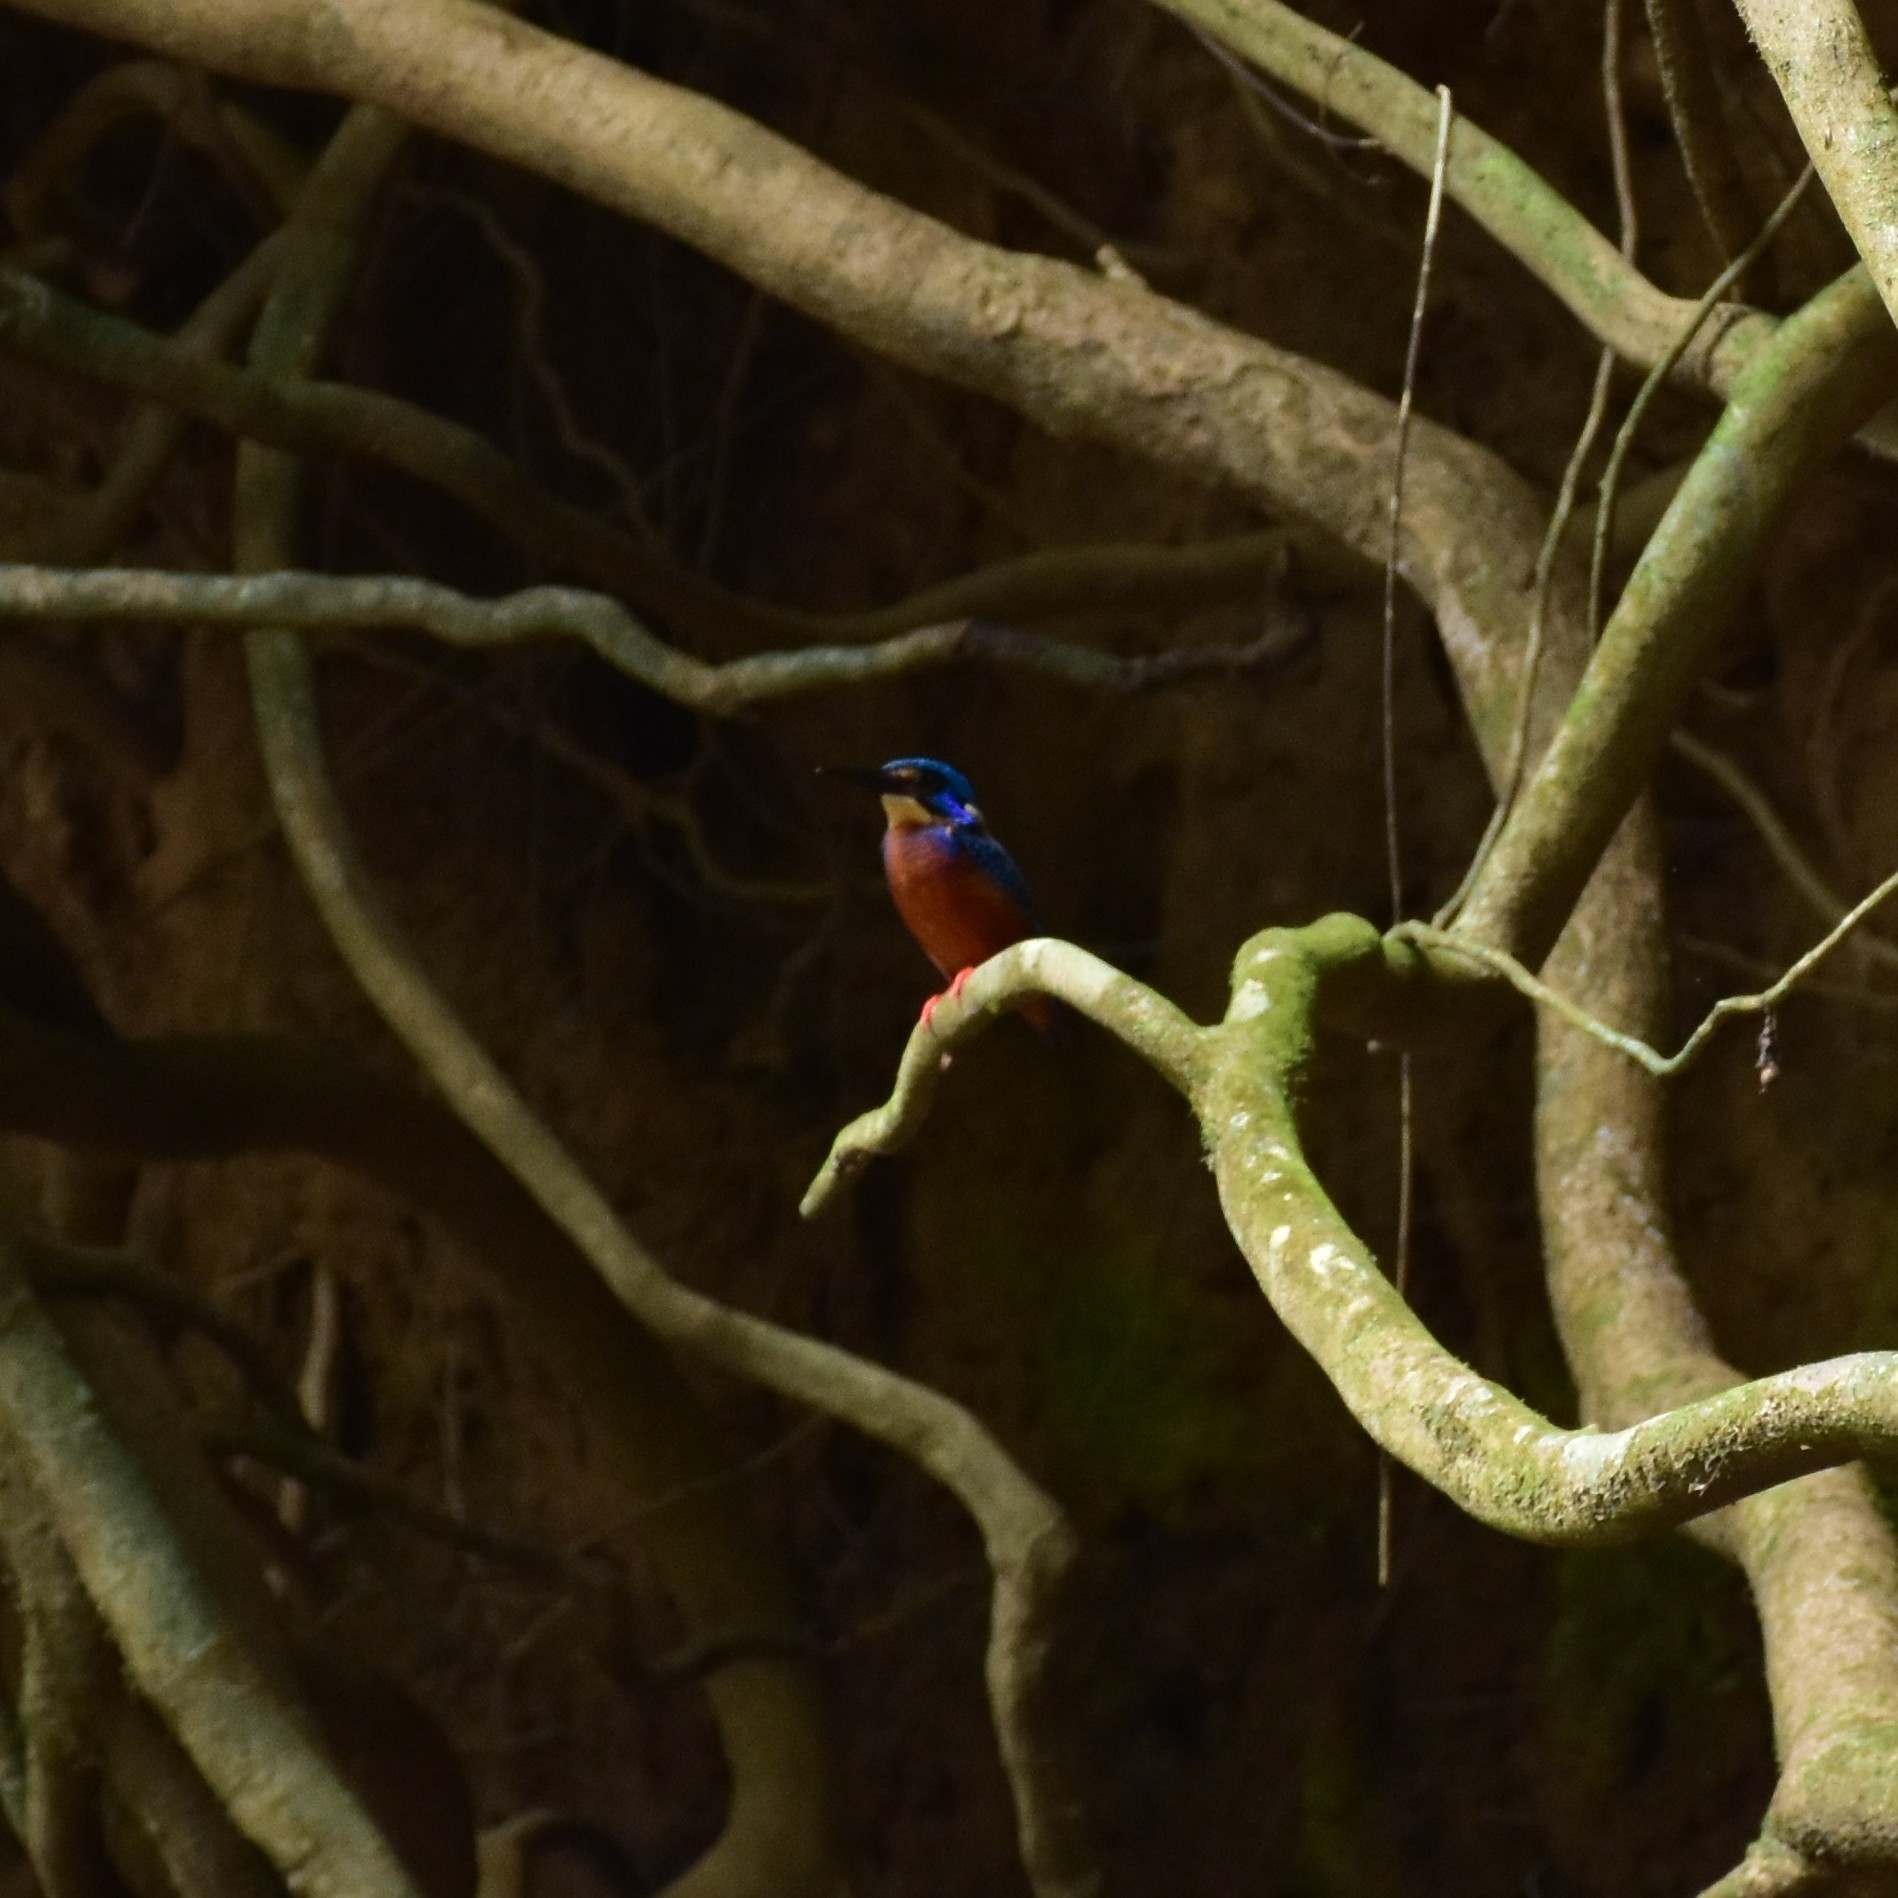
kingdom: Animalia
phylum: Chordata
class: Aves
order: Coraciiformes
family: Alcedinidae
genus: Alcedo
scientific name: Alcedo meninting
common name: Blue-eared kingfisher
